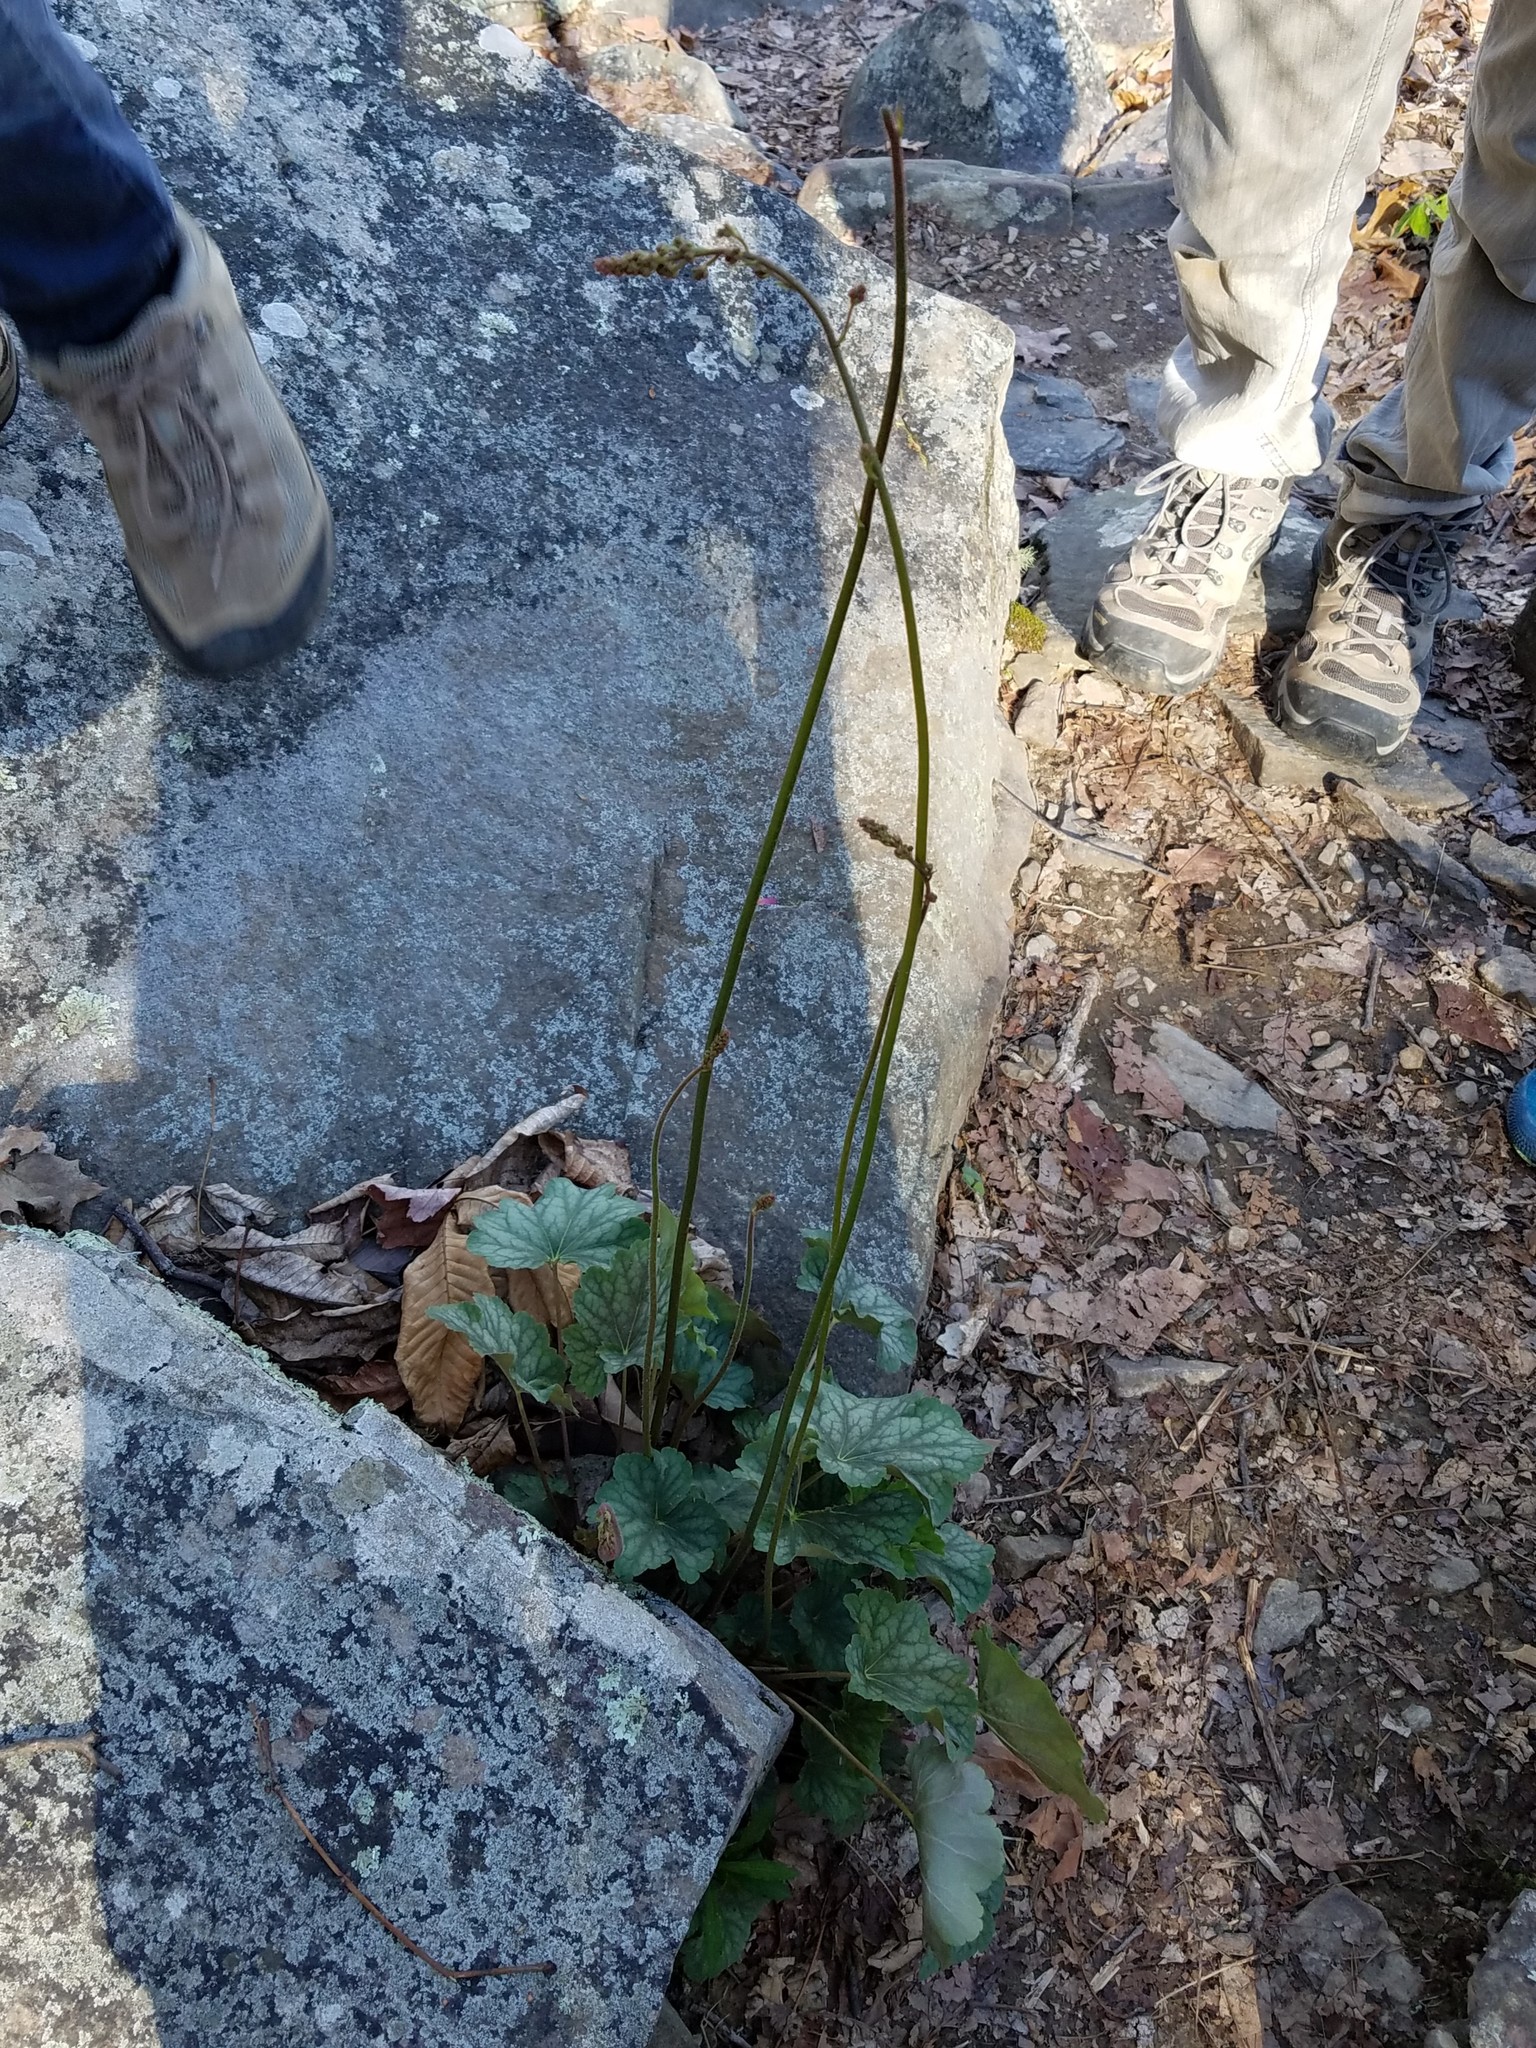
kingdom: Plantae
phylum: Tracheophyta
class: Magnoliopsida
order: Saxifragales
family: Saxifragaceae
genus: Heuchera
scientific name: Heuchera americana
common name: Alumroot
